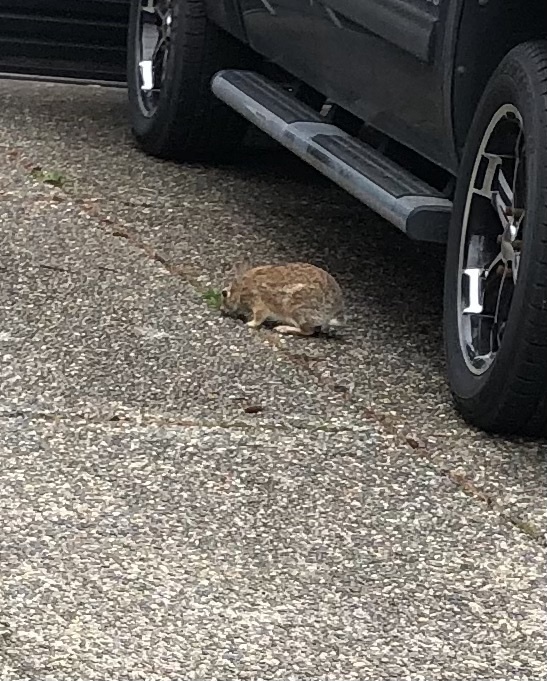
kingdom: Animalia
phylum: Chordata
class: Mammalia
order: Lagomorpha
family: Leporidae
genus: Sylvilagus
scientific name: Sylvilagus floridanus
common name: Eastern cottontail
